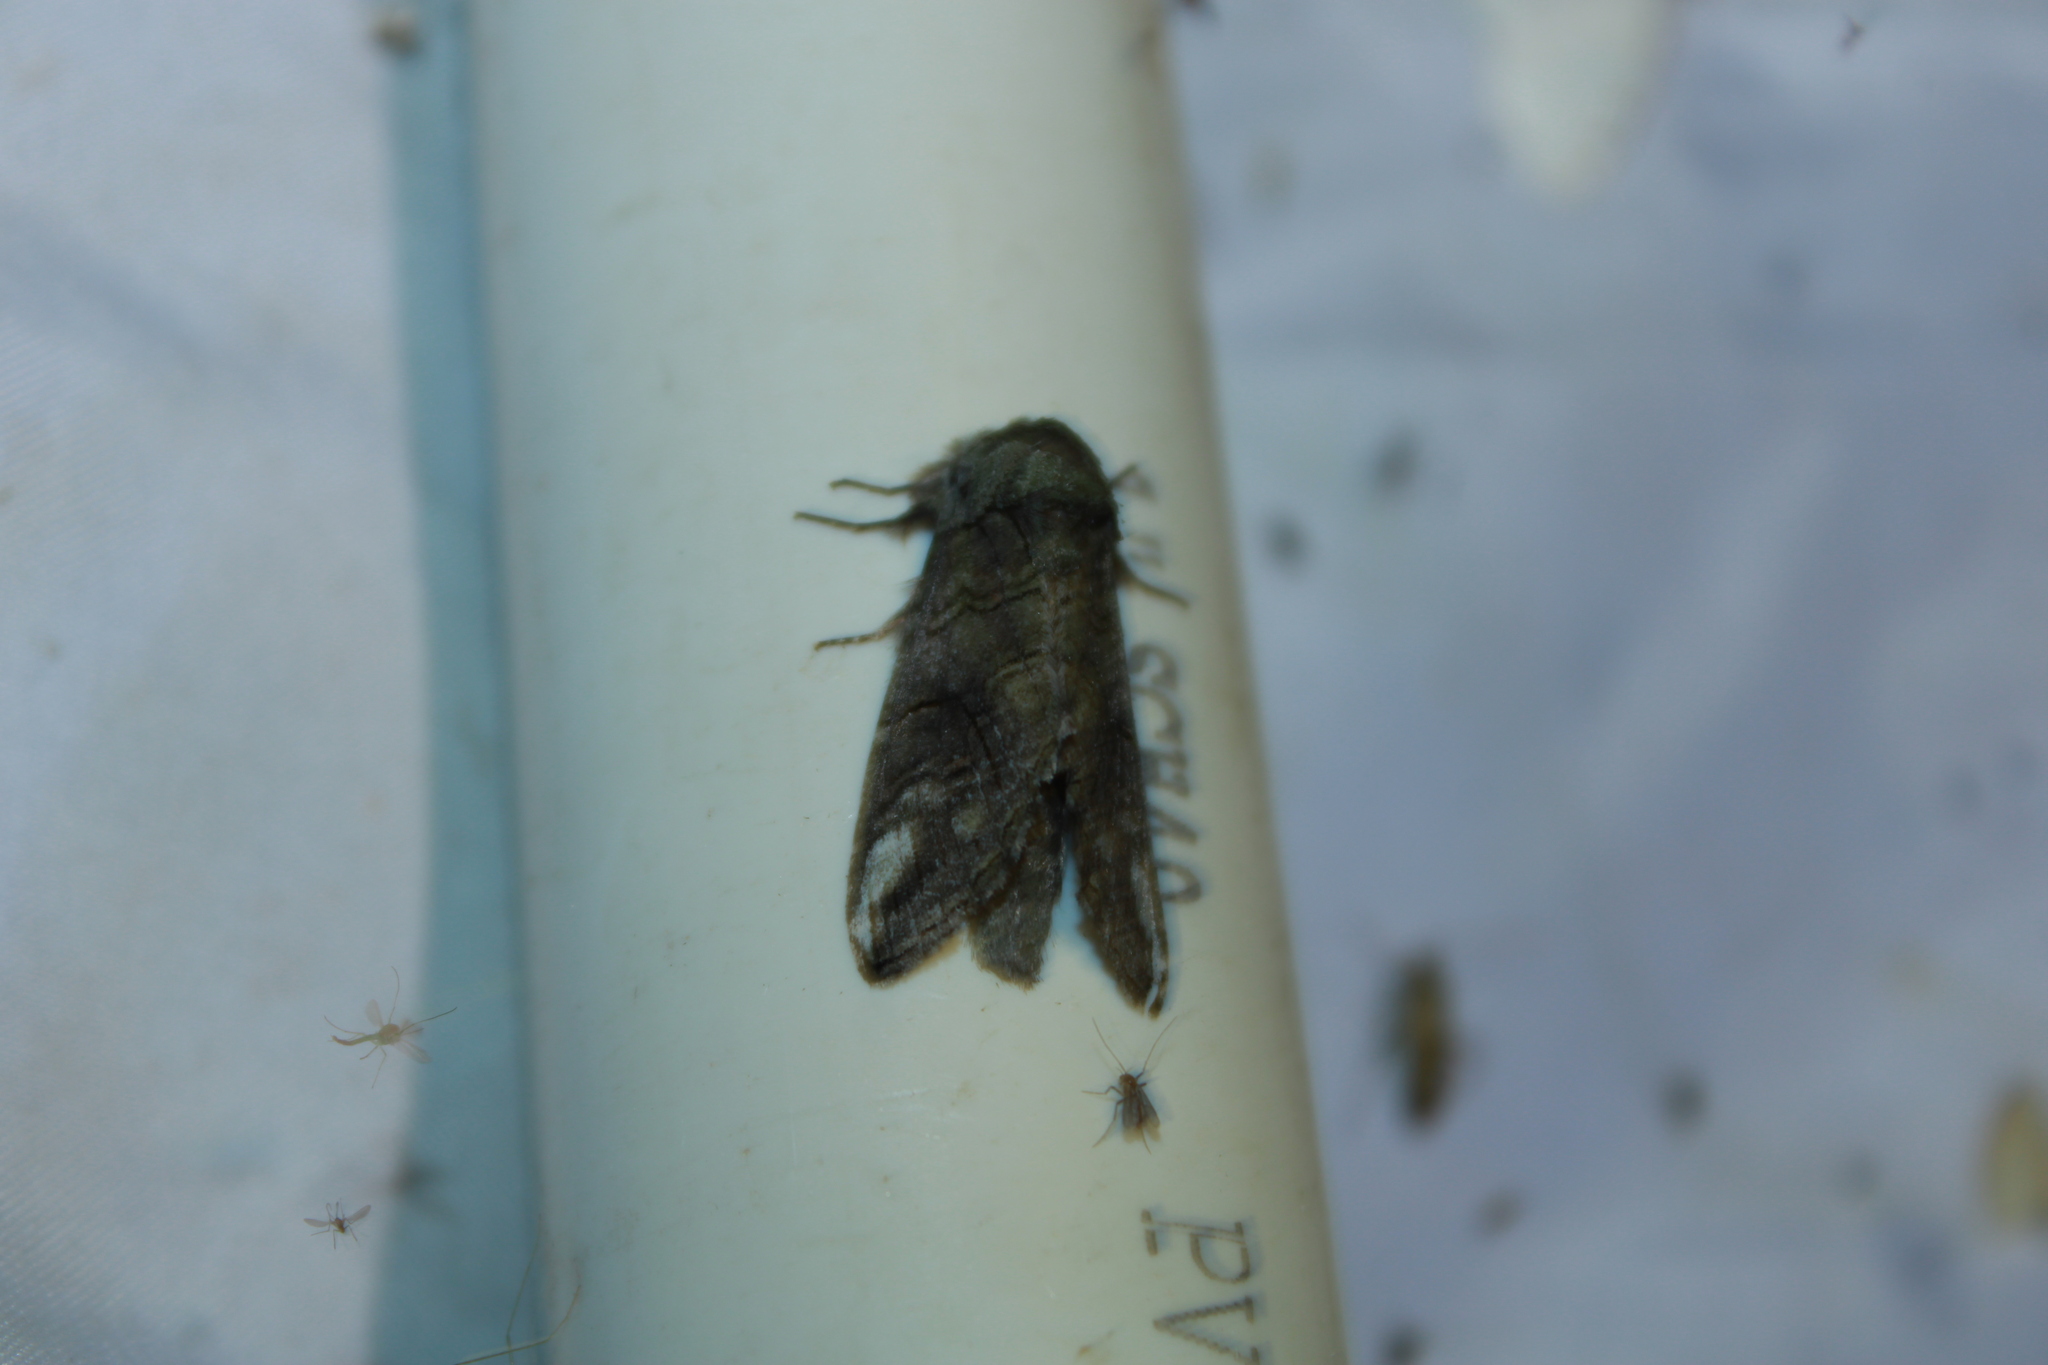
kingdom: Animalia
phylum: Arthropoda
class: Insecta
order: Lepidoptera
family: Notodontidae
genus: Heterocampa
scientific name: Heterocampa obliqua
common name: Oblique heterocampa
